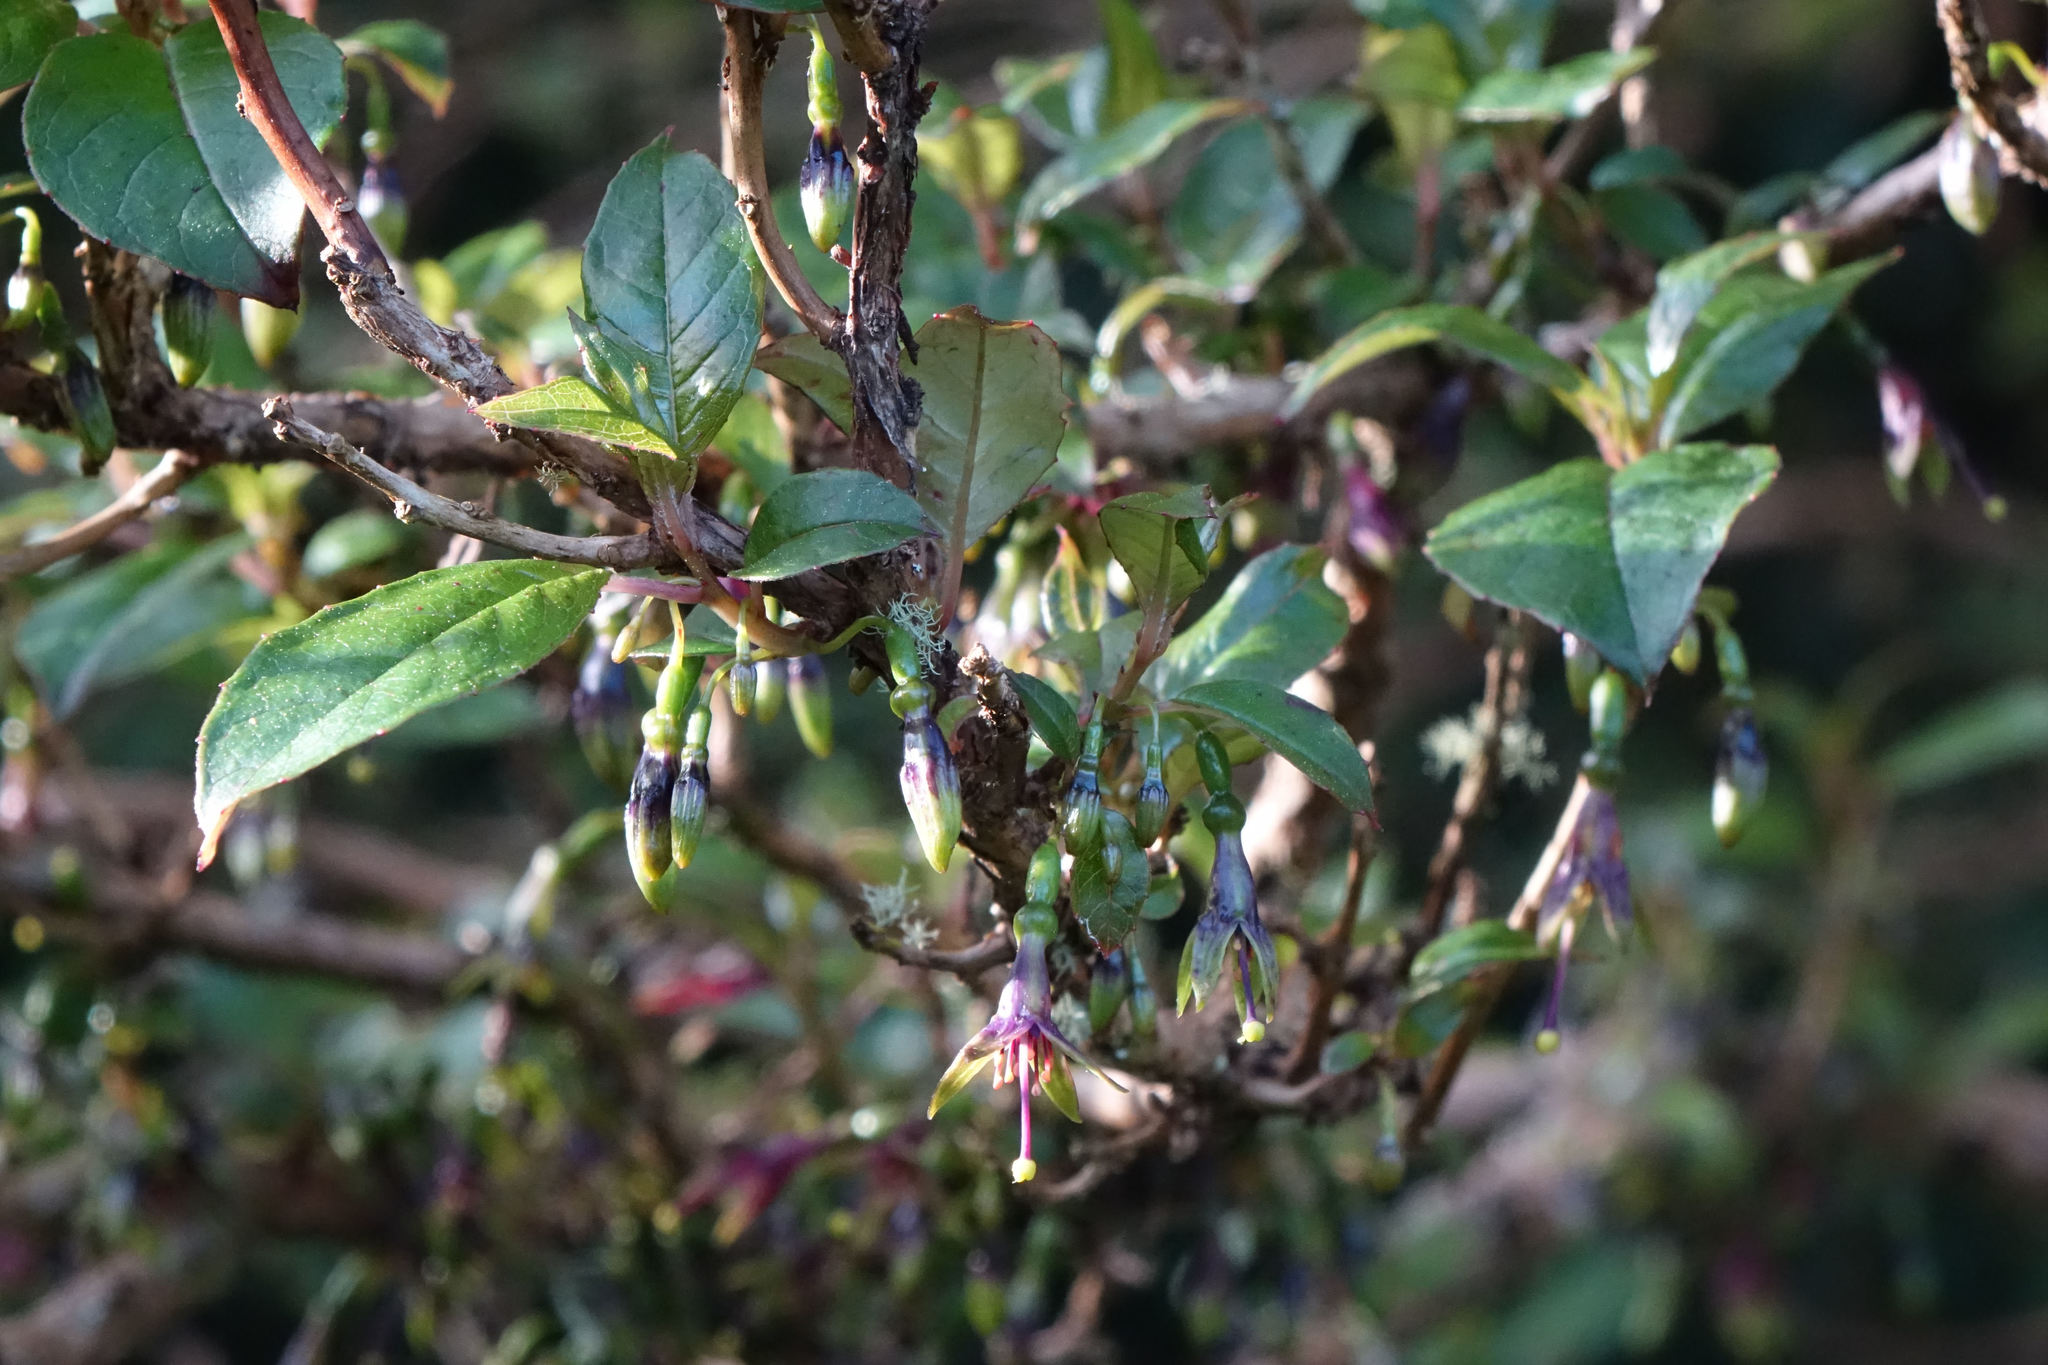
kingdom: Plantae
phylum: Tracheophyta
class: Magnoliopsida
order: Myrtales
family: Onagraceae
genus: Fuchsia
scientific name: Fuchsia excorticata
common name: Tree fuchsia
